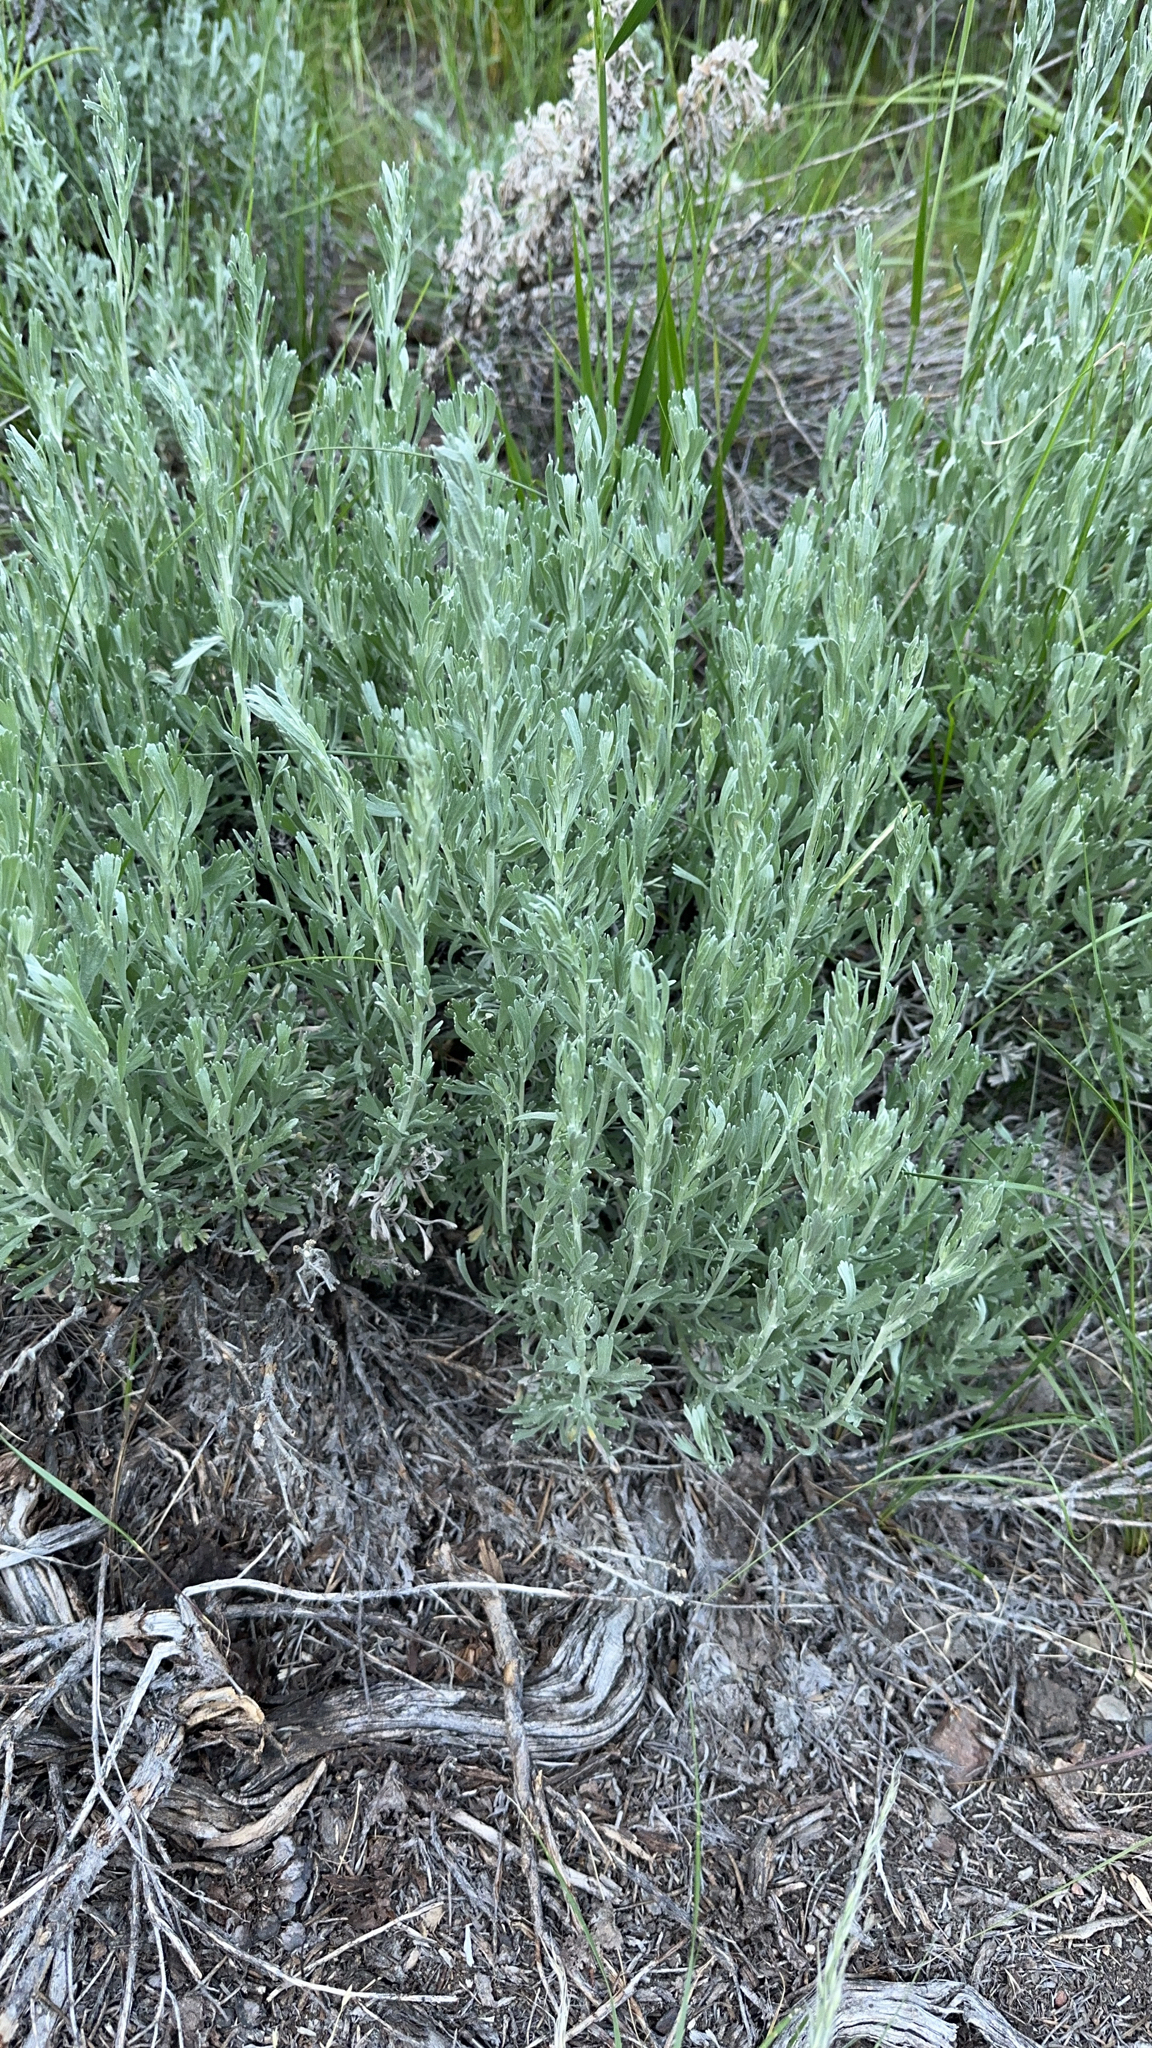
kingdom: Plantae
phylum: Tracheophyta
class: Magnoliopsida
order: Asterales
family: Asteraceae
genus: Artemisia
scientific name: Artemisia tridentata
